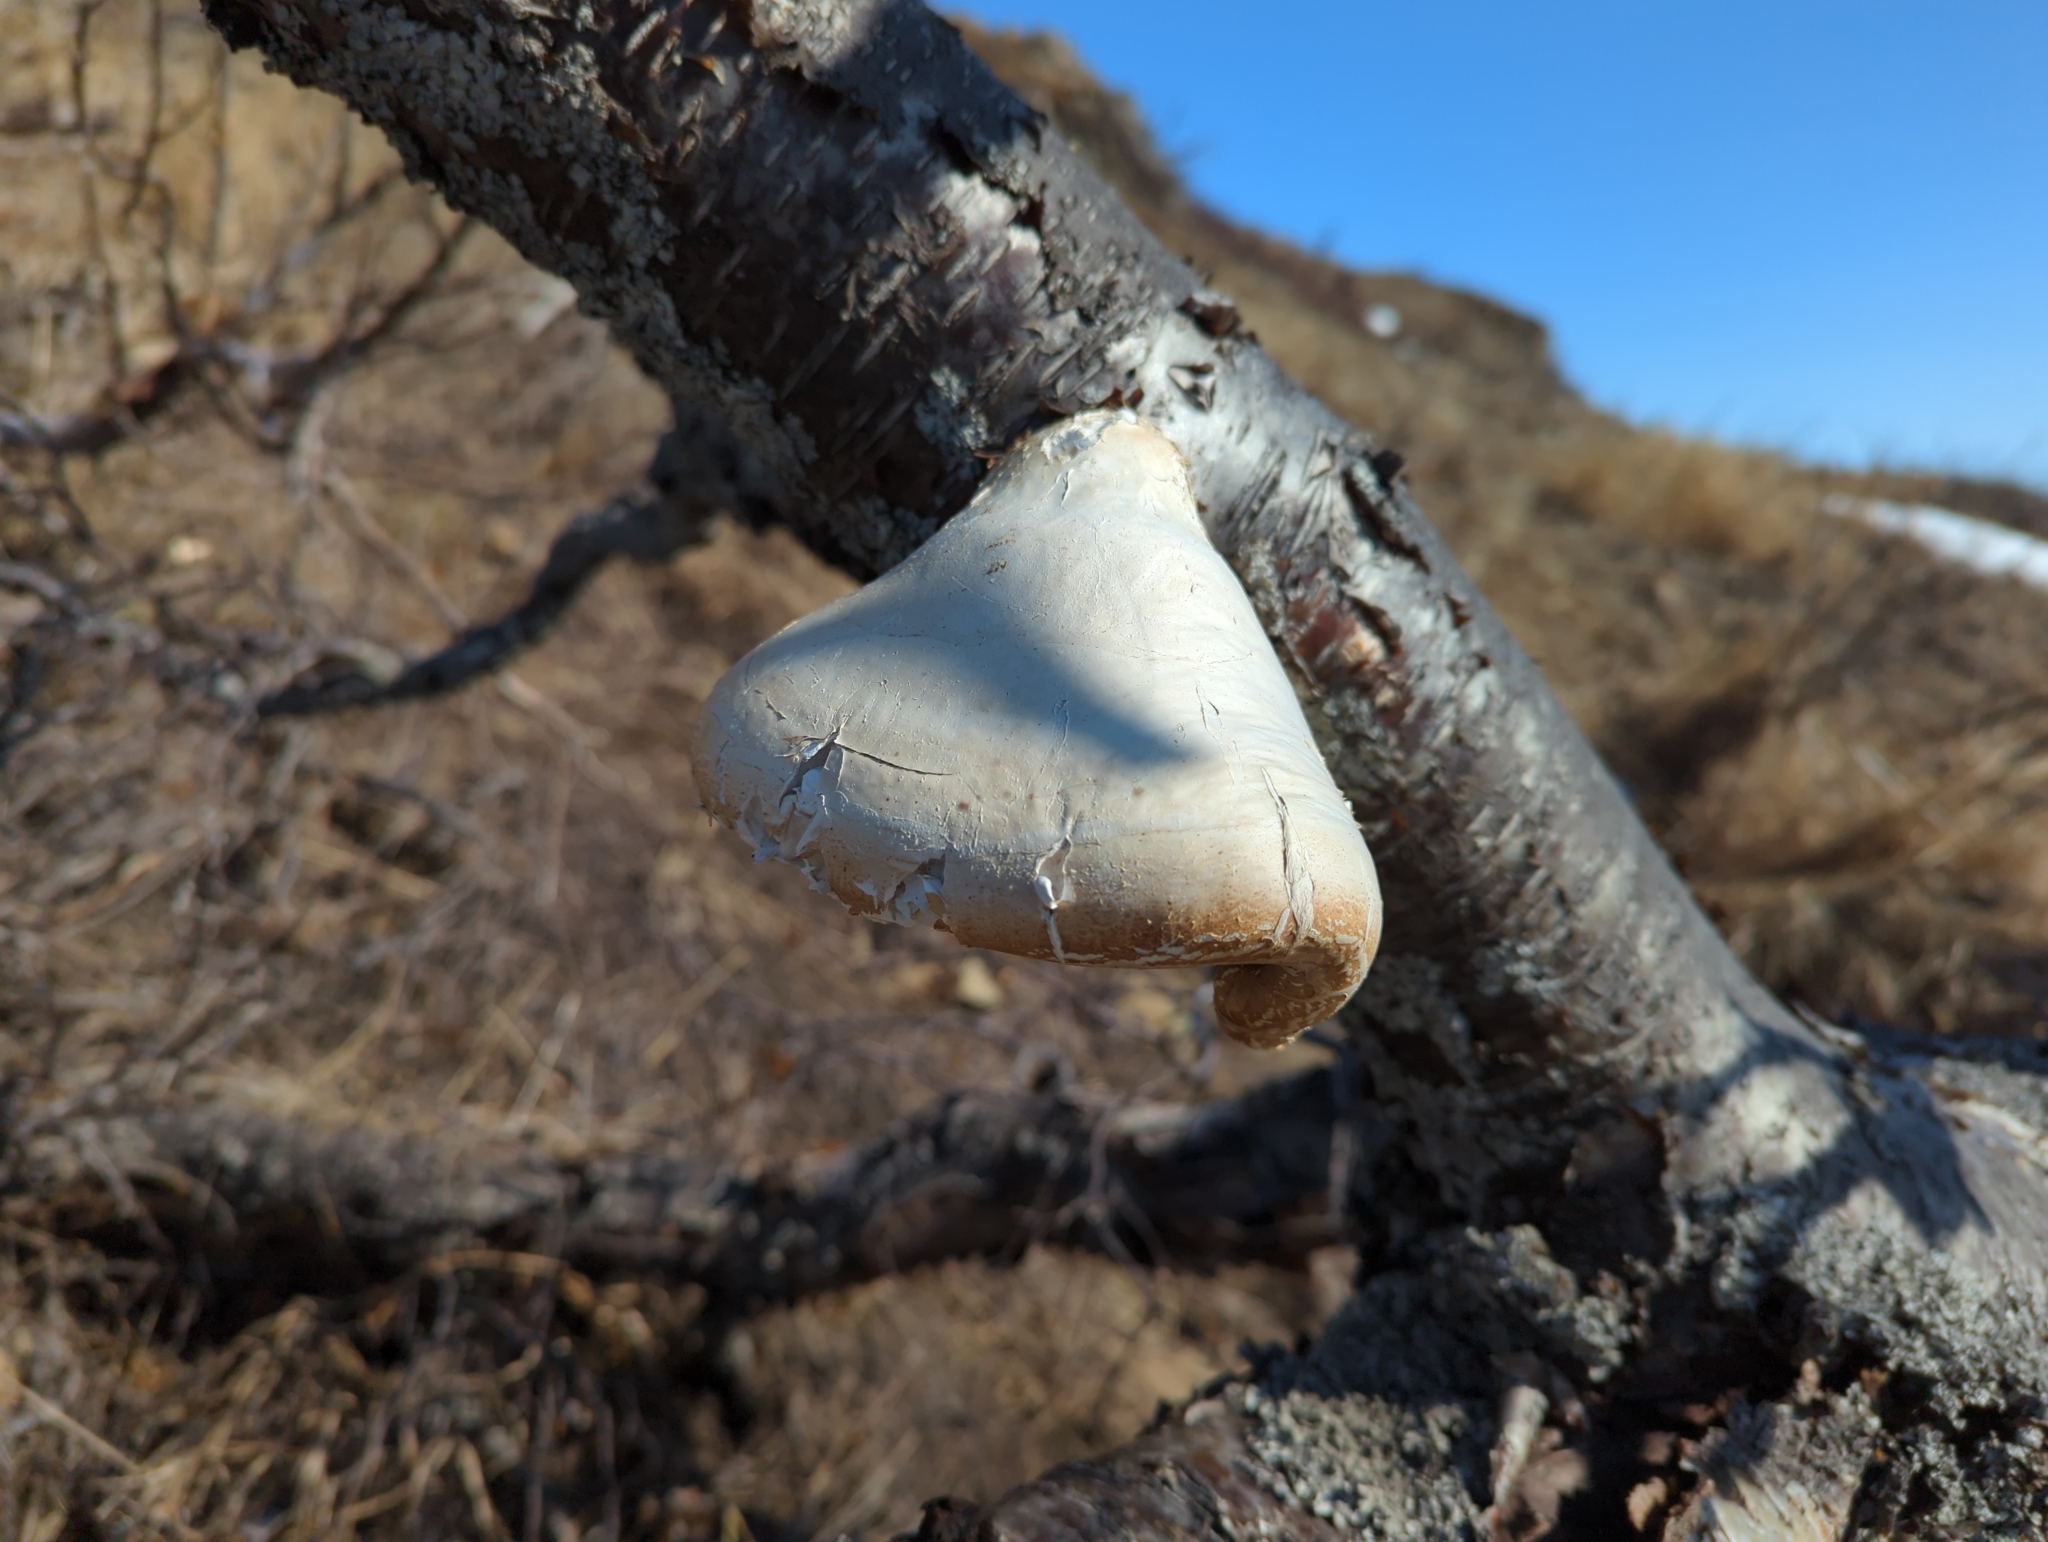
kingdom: Fungi
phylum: Basidiomycota
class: Agaricomycetes
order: Polyporales
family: Fomitopsidaceae
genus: Fomitopsis
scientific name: Fomitopsis betulina
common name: Birch polypore
